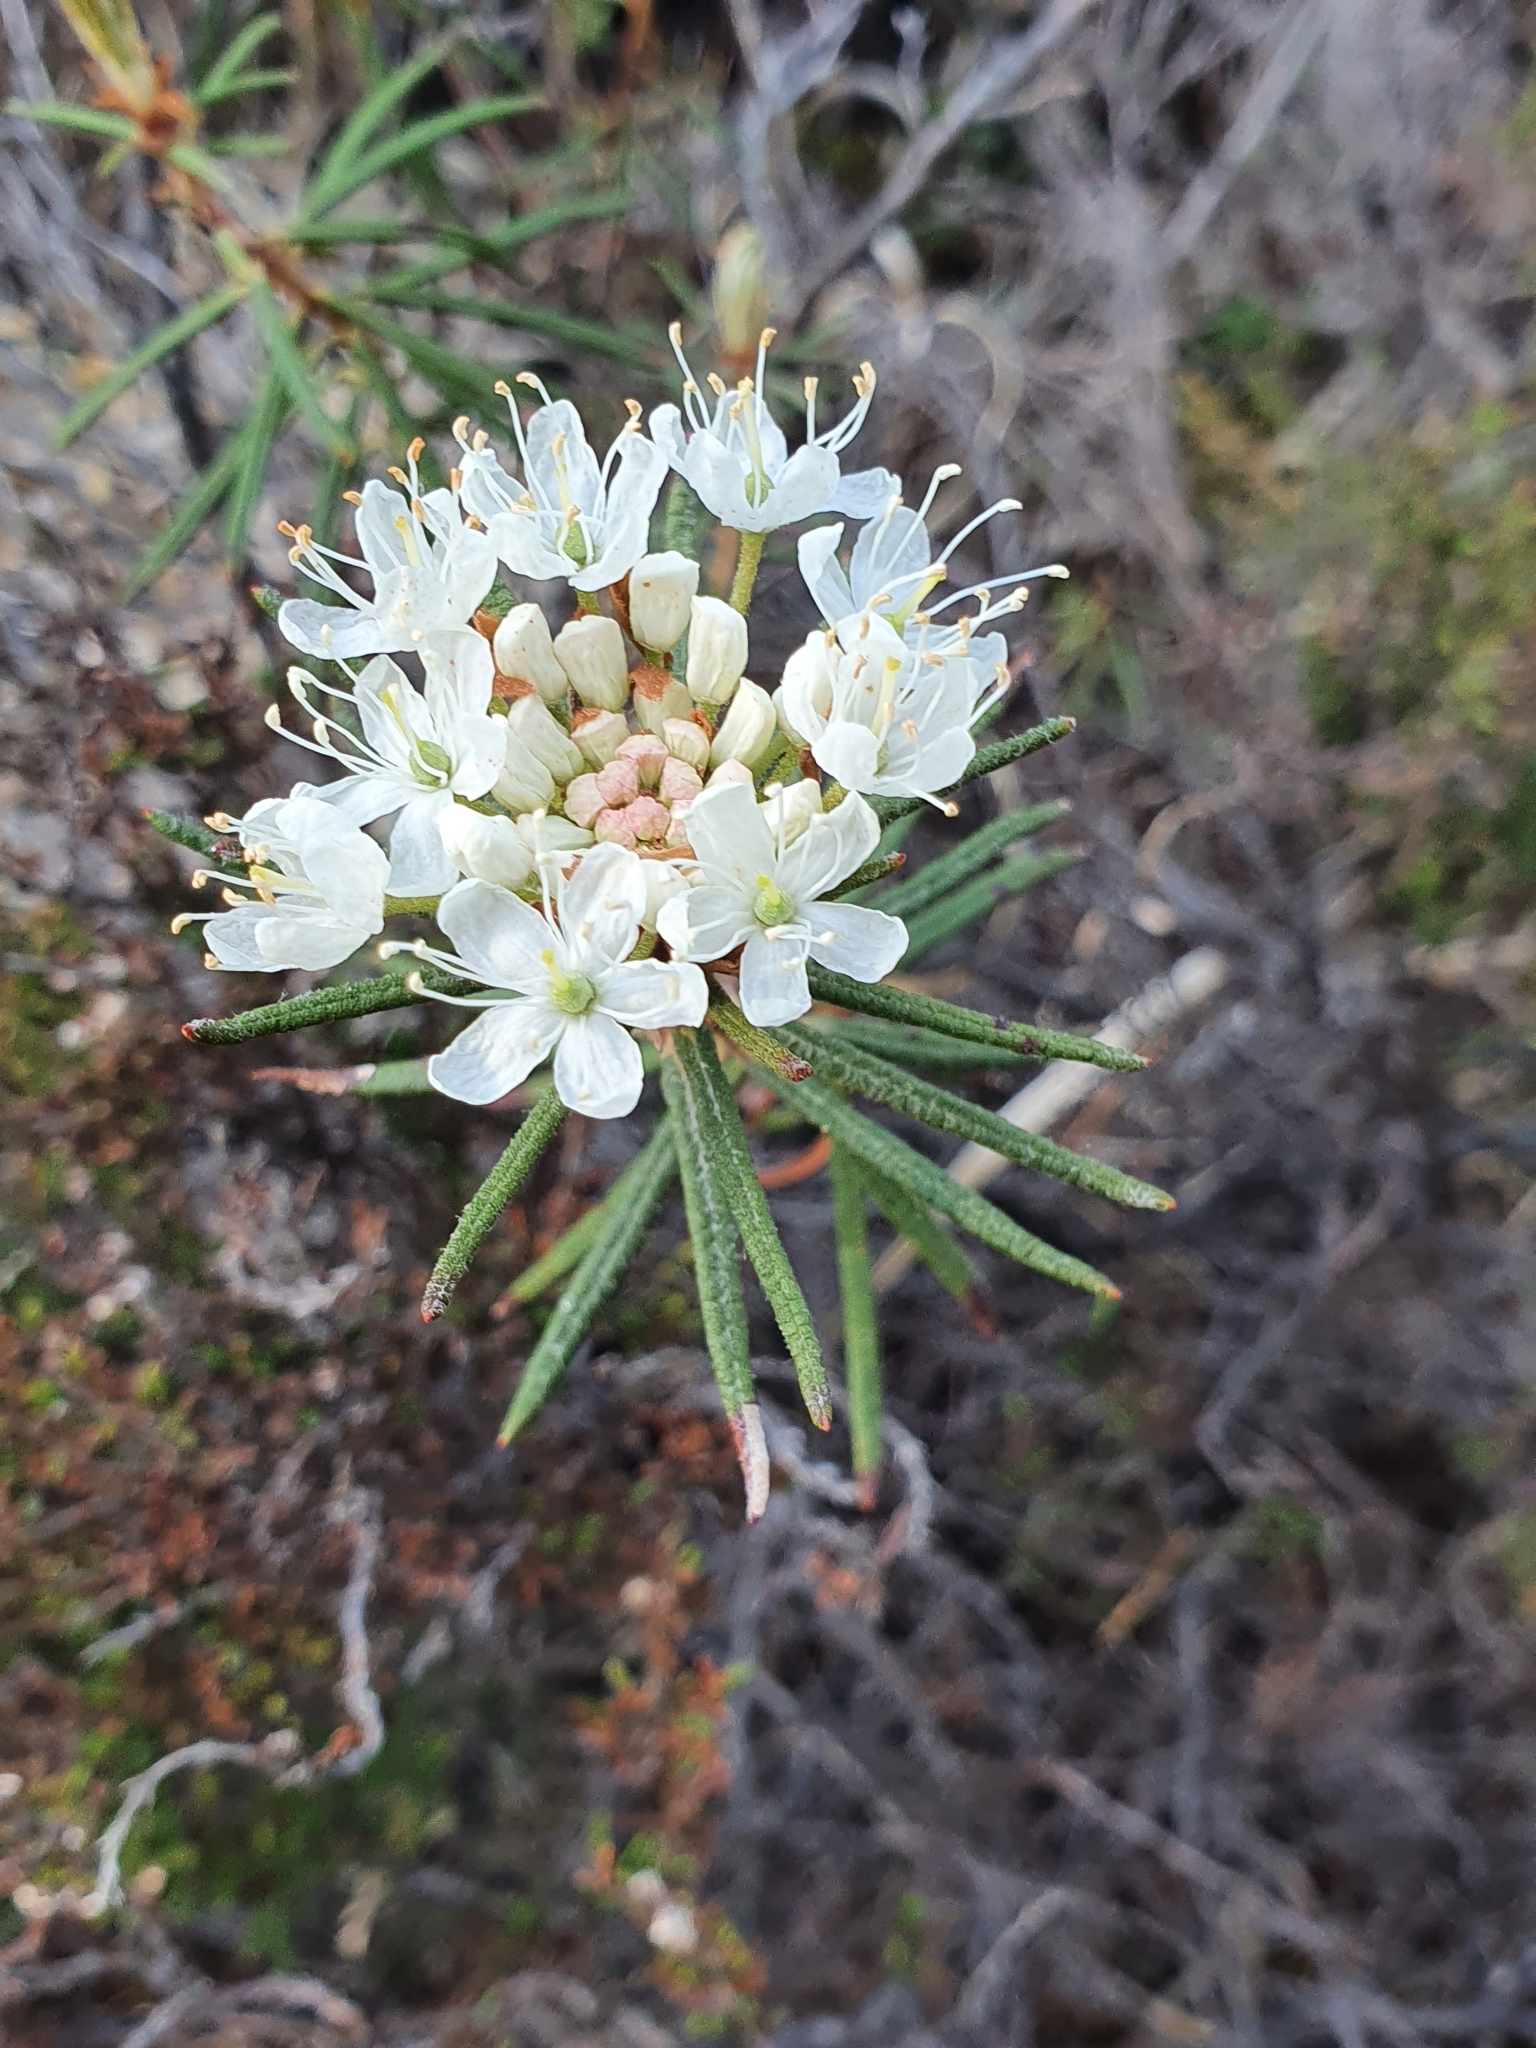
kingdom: Plantae
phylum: Tracheophyta
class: Magnoliopsida
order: Ericales
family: Ericaceae
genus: Rhododendron
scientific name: Rhododendron tomentosum
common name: Marsh labrador tea
